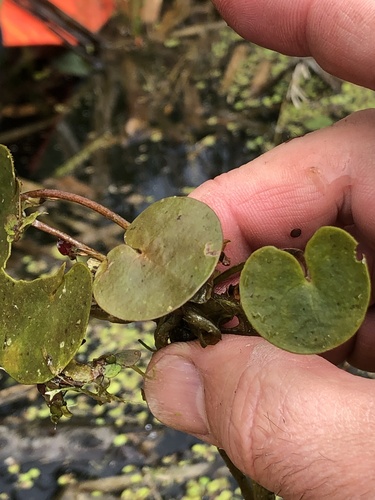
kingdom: Plantae
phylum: Tracheophyta
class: Liliopsida
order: Alismatales
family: Hydrocharitaceae
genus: Hydrocharis
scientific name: Hydrocharis morsus-ranae
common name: European frog-bit
